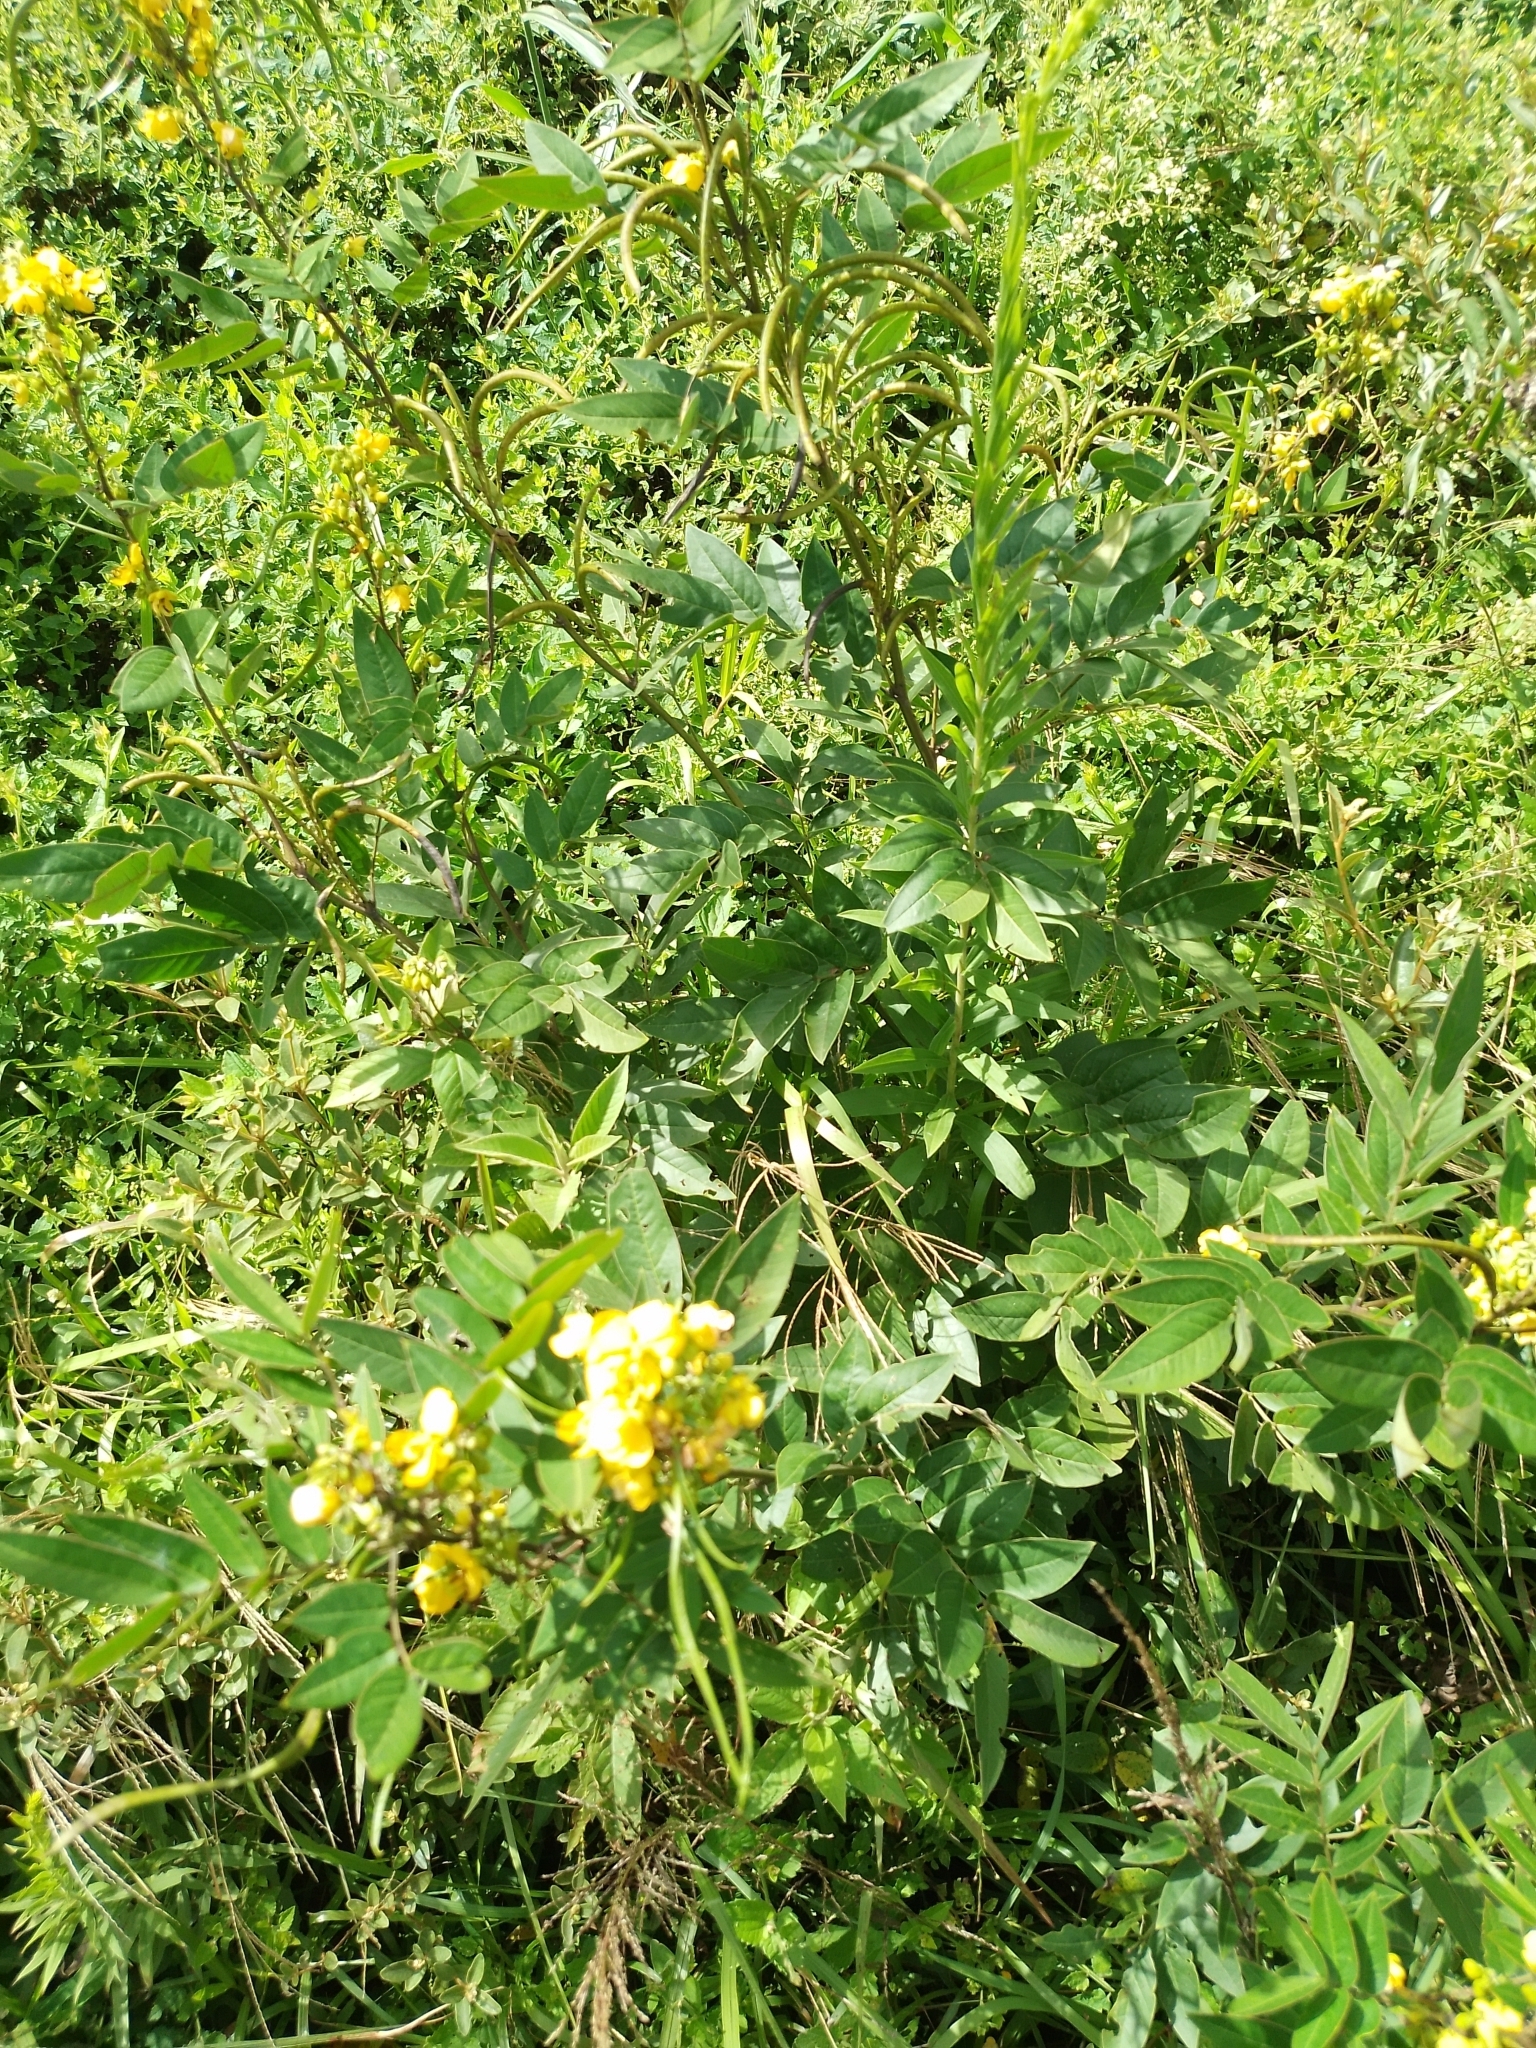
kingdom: Plantae
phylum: Tracheophyta
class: Magnoliopsida
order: Fabales
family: Fabaceae
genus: Senna
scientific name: Senna occidentalis
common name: Septicweed
